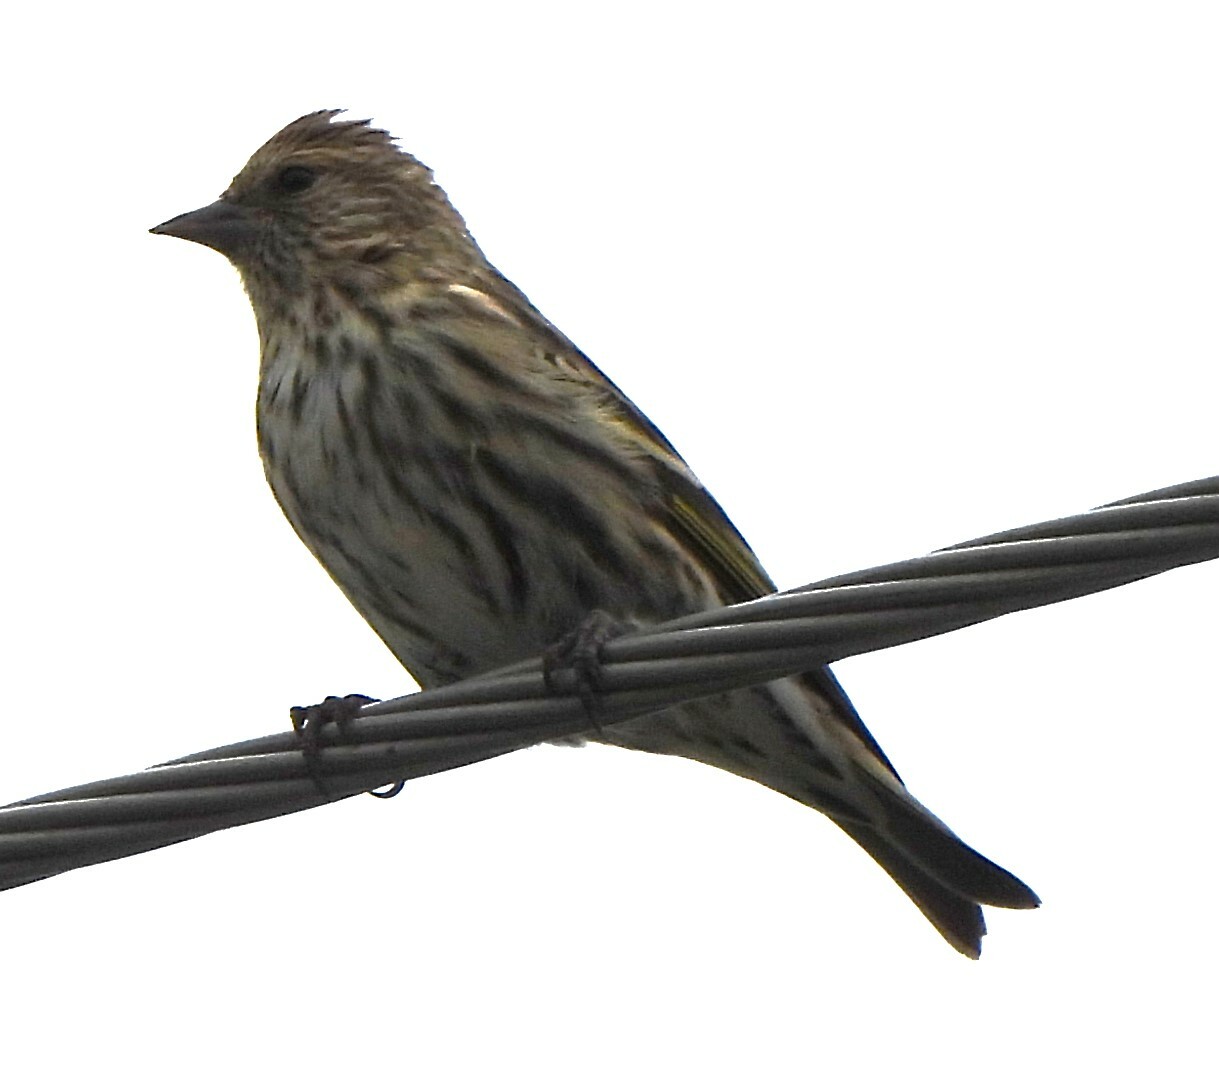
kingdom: Animalia
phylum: Chordata
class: Aves
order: Passeriformes
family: Fringillidae
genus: Spinus
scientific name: Spinus pinus
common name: Pine siskin
